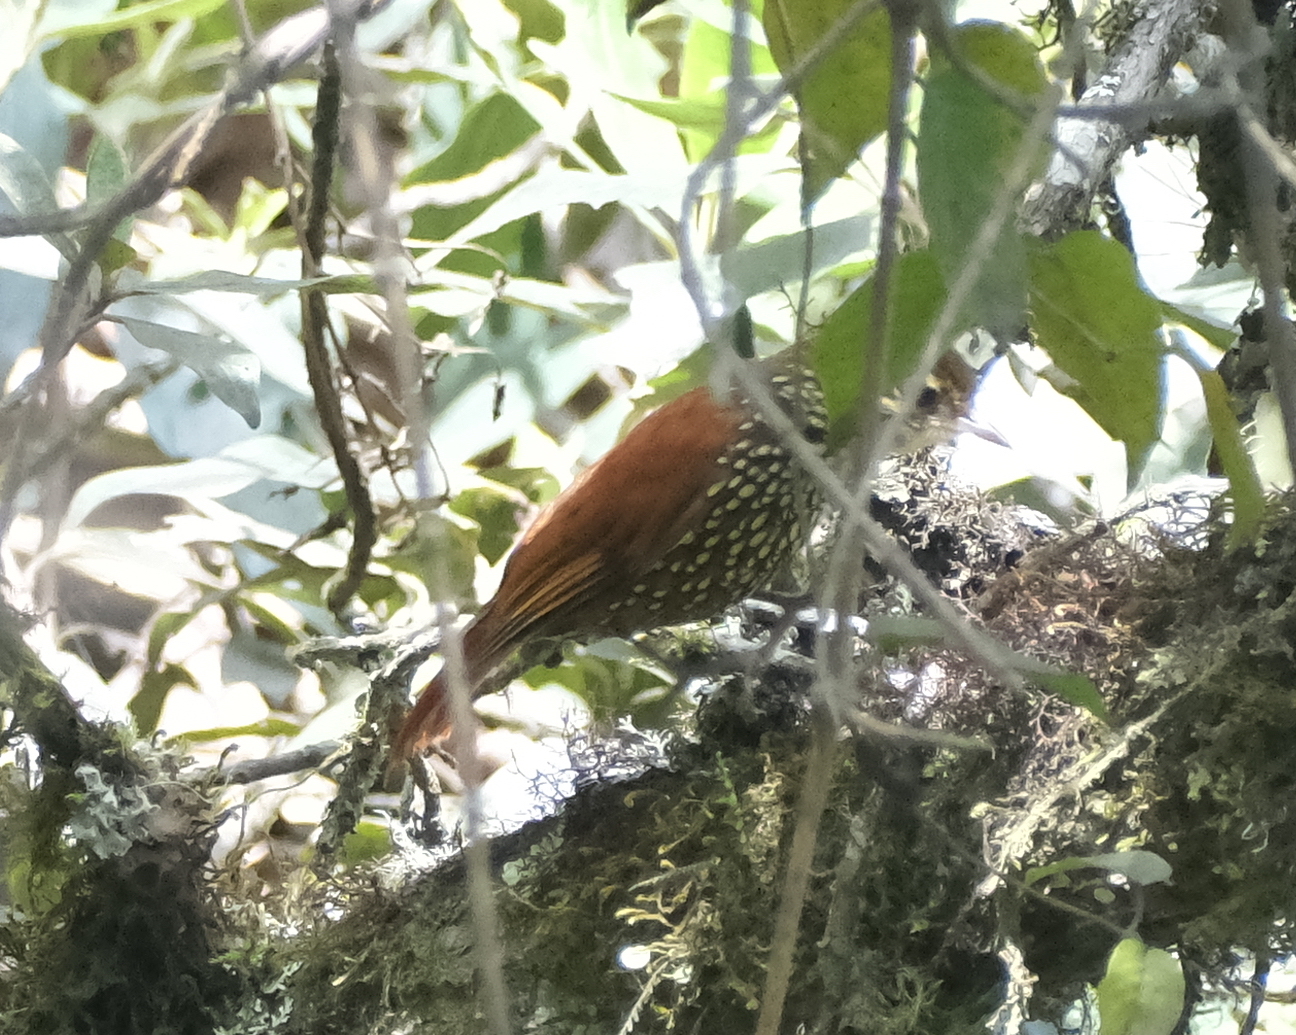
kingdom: Animalia
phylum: Chordata
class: Aves
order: Passeriformes
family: Furnariidae
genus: Margarornis
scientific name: Margarornis squamiger
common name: Pearled treerunner
